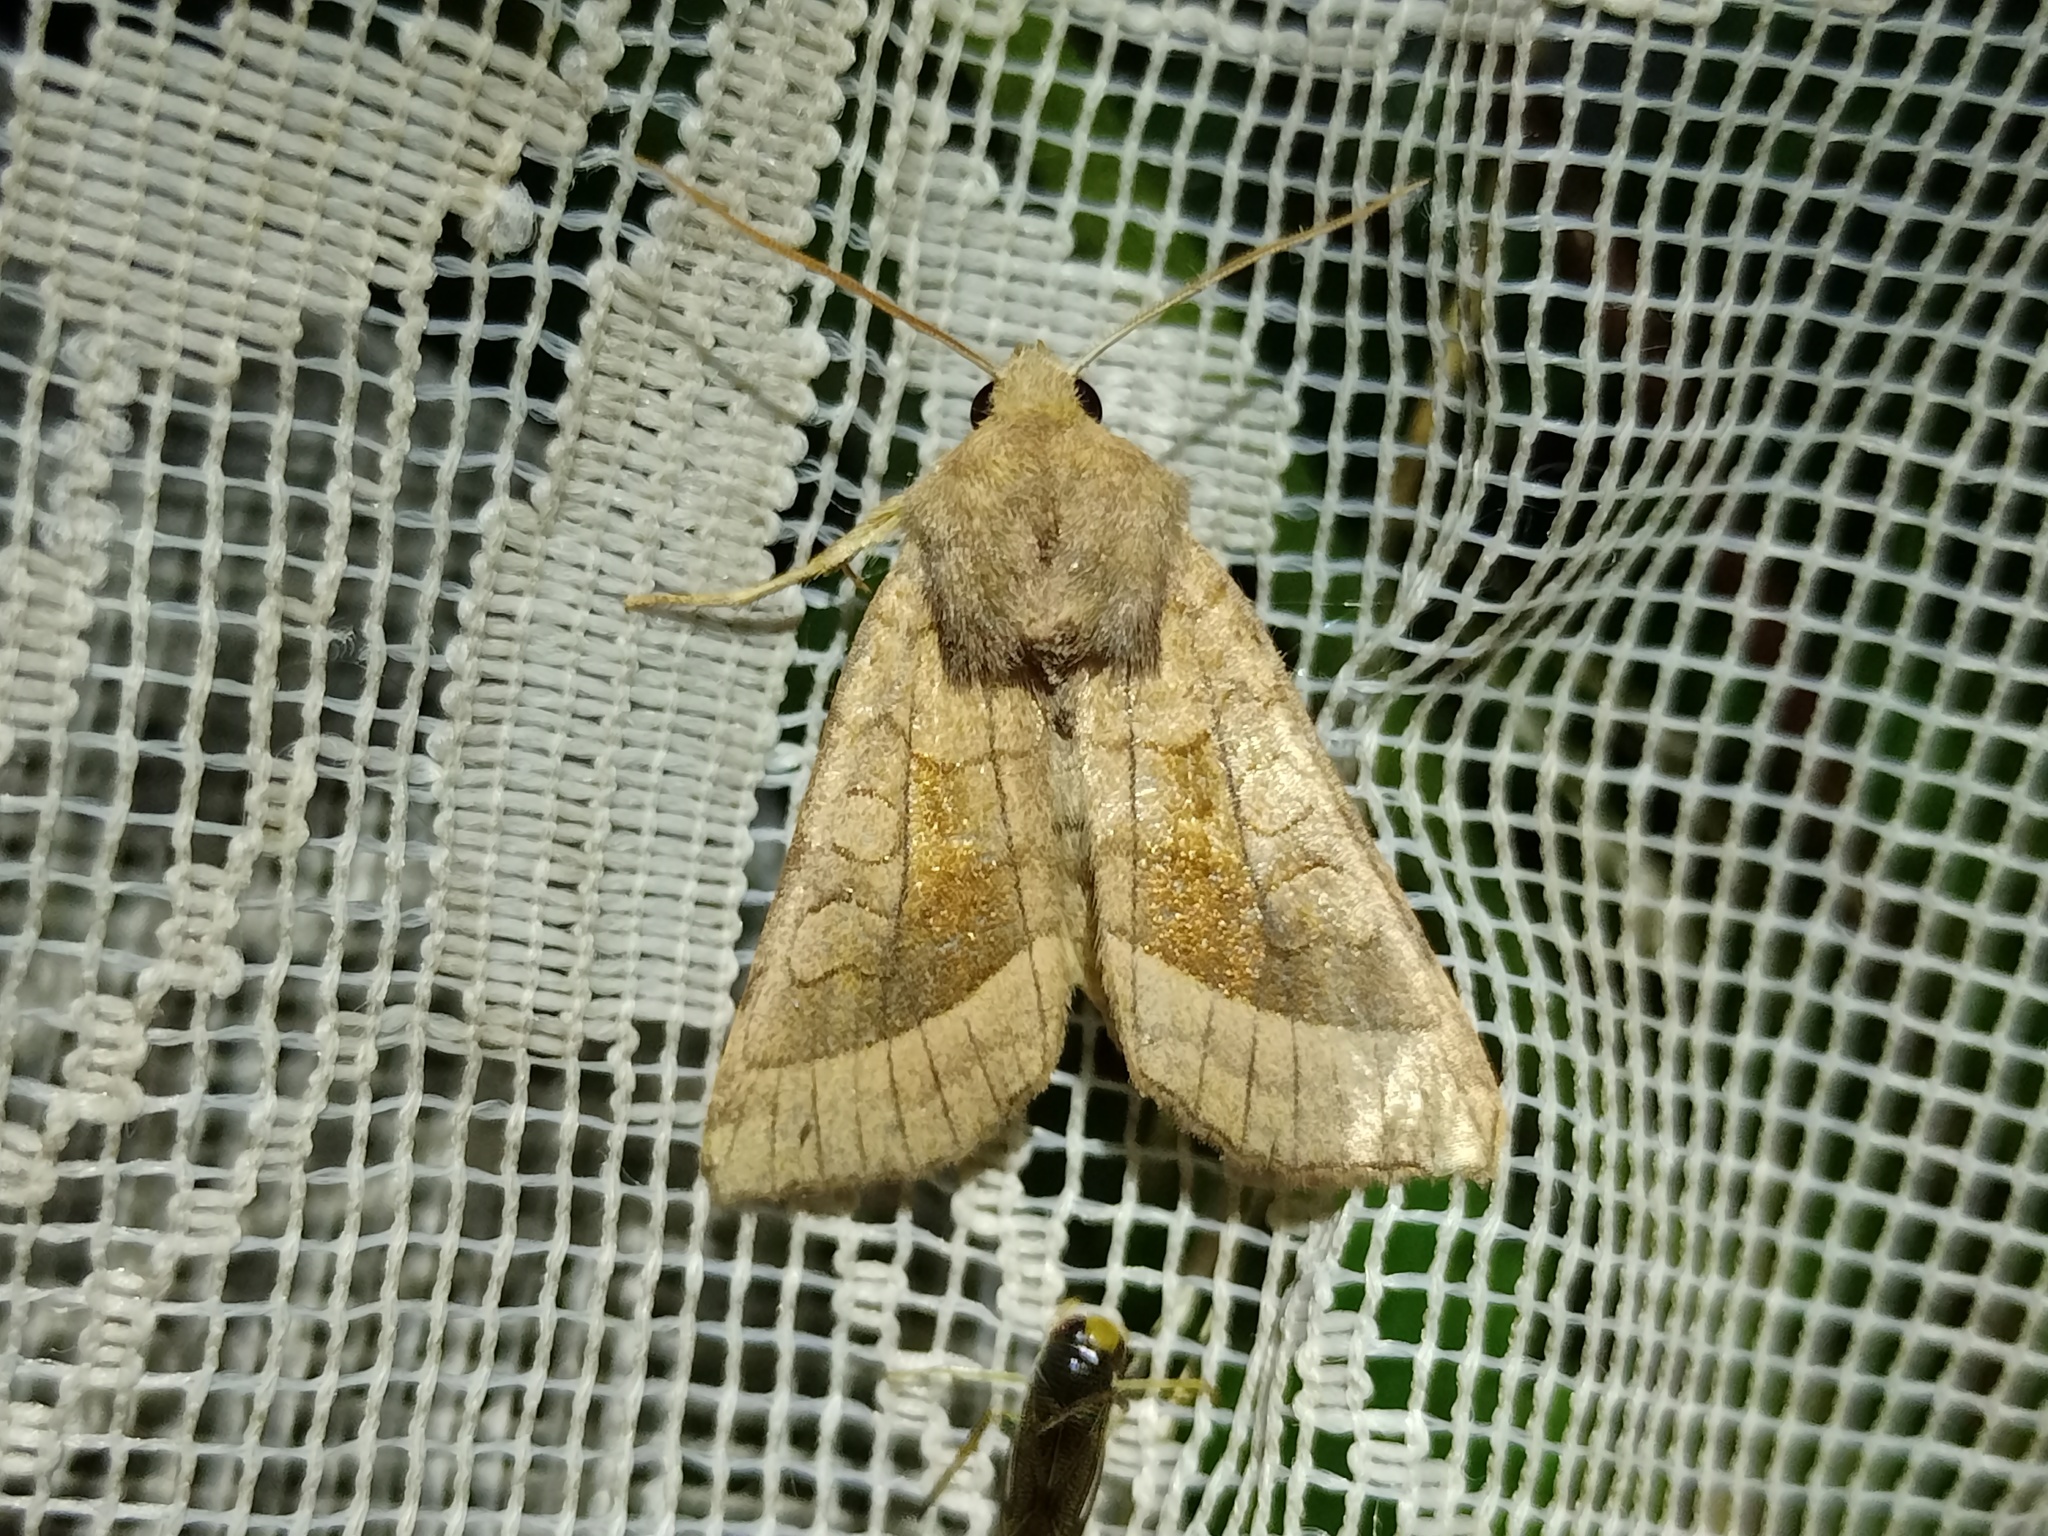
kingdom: Animalia
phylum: Arthropoda
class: Insecta
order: Lepidoptera
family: Noctuidae
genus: Hydraecia
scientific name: Hydraecia micacea
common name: Rosy rustic
